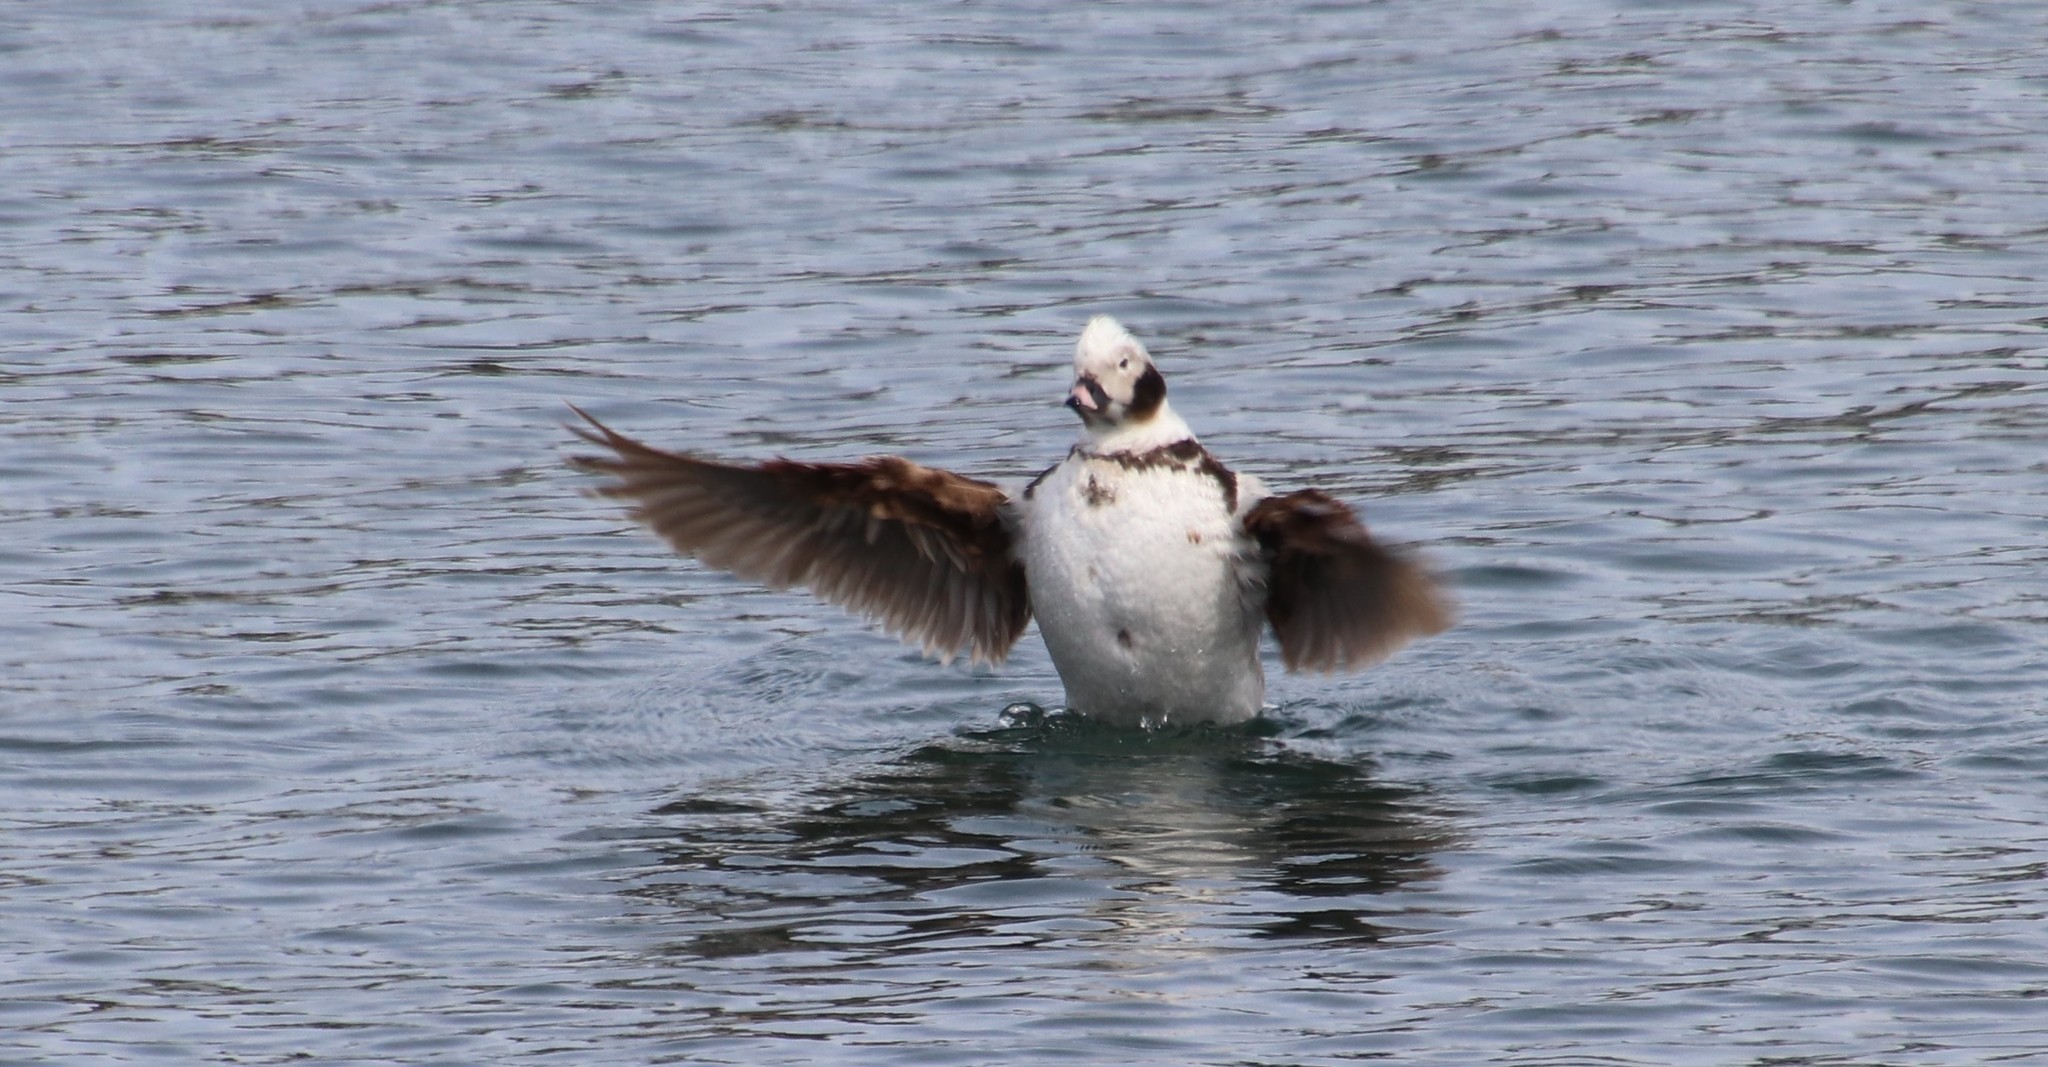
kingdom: Animalia
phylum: Chordata
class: Aves
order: Anseriformes
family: Anatidae
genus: Clangula
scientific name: Clangula hyemalis
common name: Long-tailed duck
